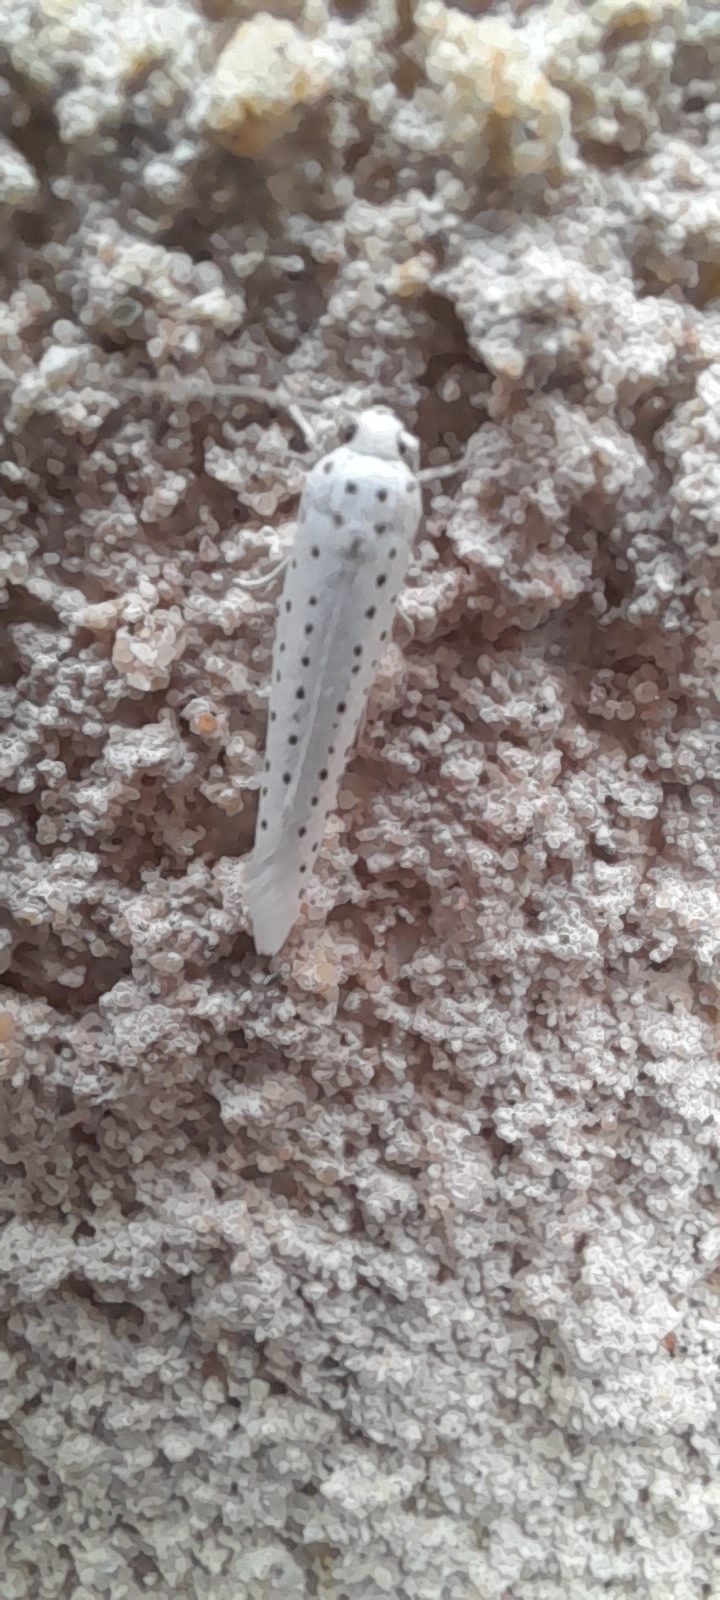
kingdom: Animalia
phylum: Arthropoda
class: Insecta
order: Lepidoptera
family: Yponomeutidae
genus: Yponomeuta
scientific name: Yponomeuta evonymella
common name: Bird-cherry ermine
